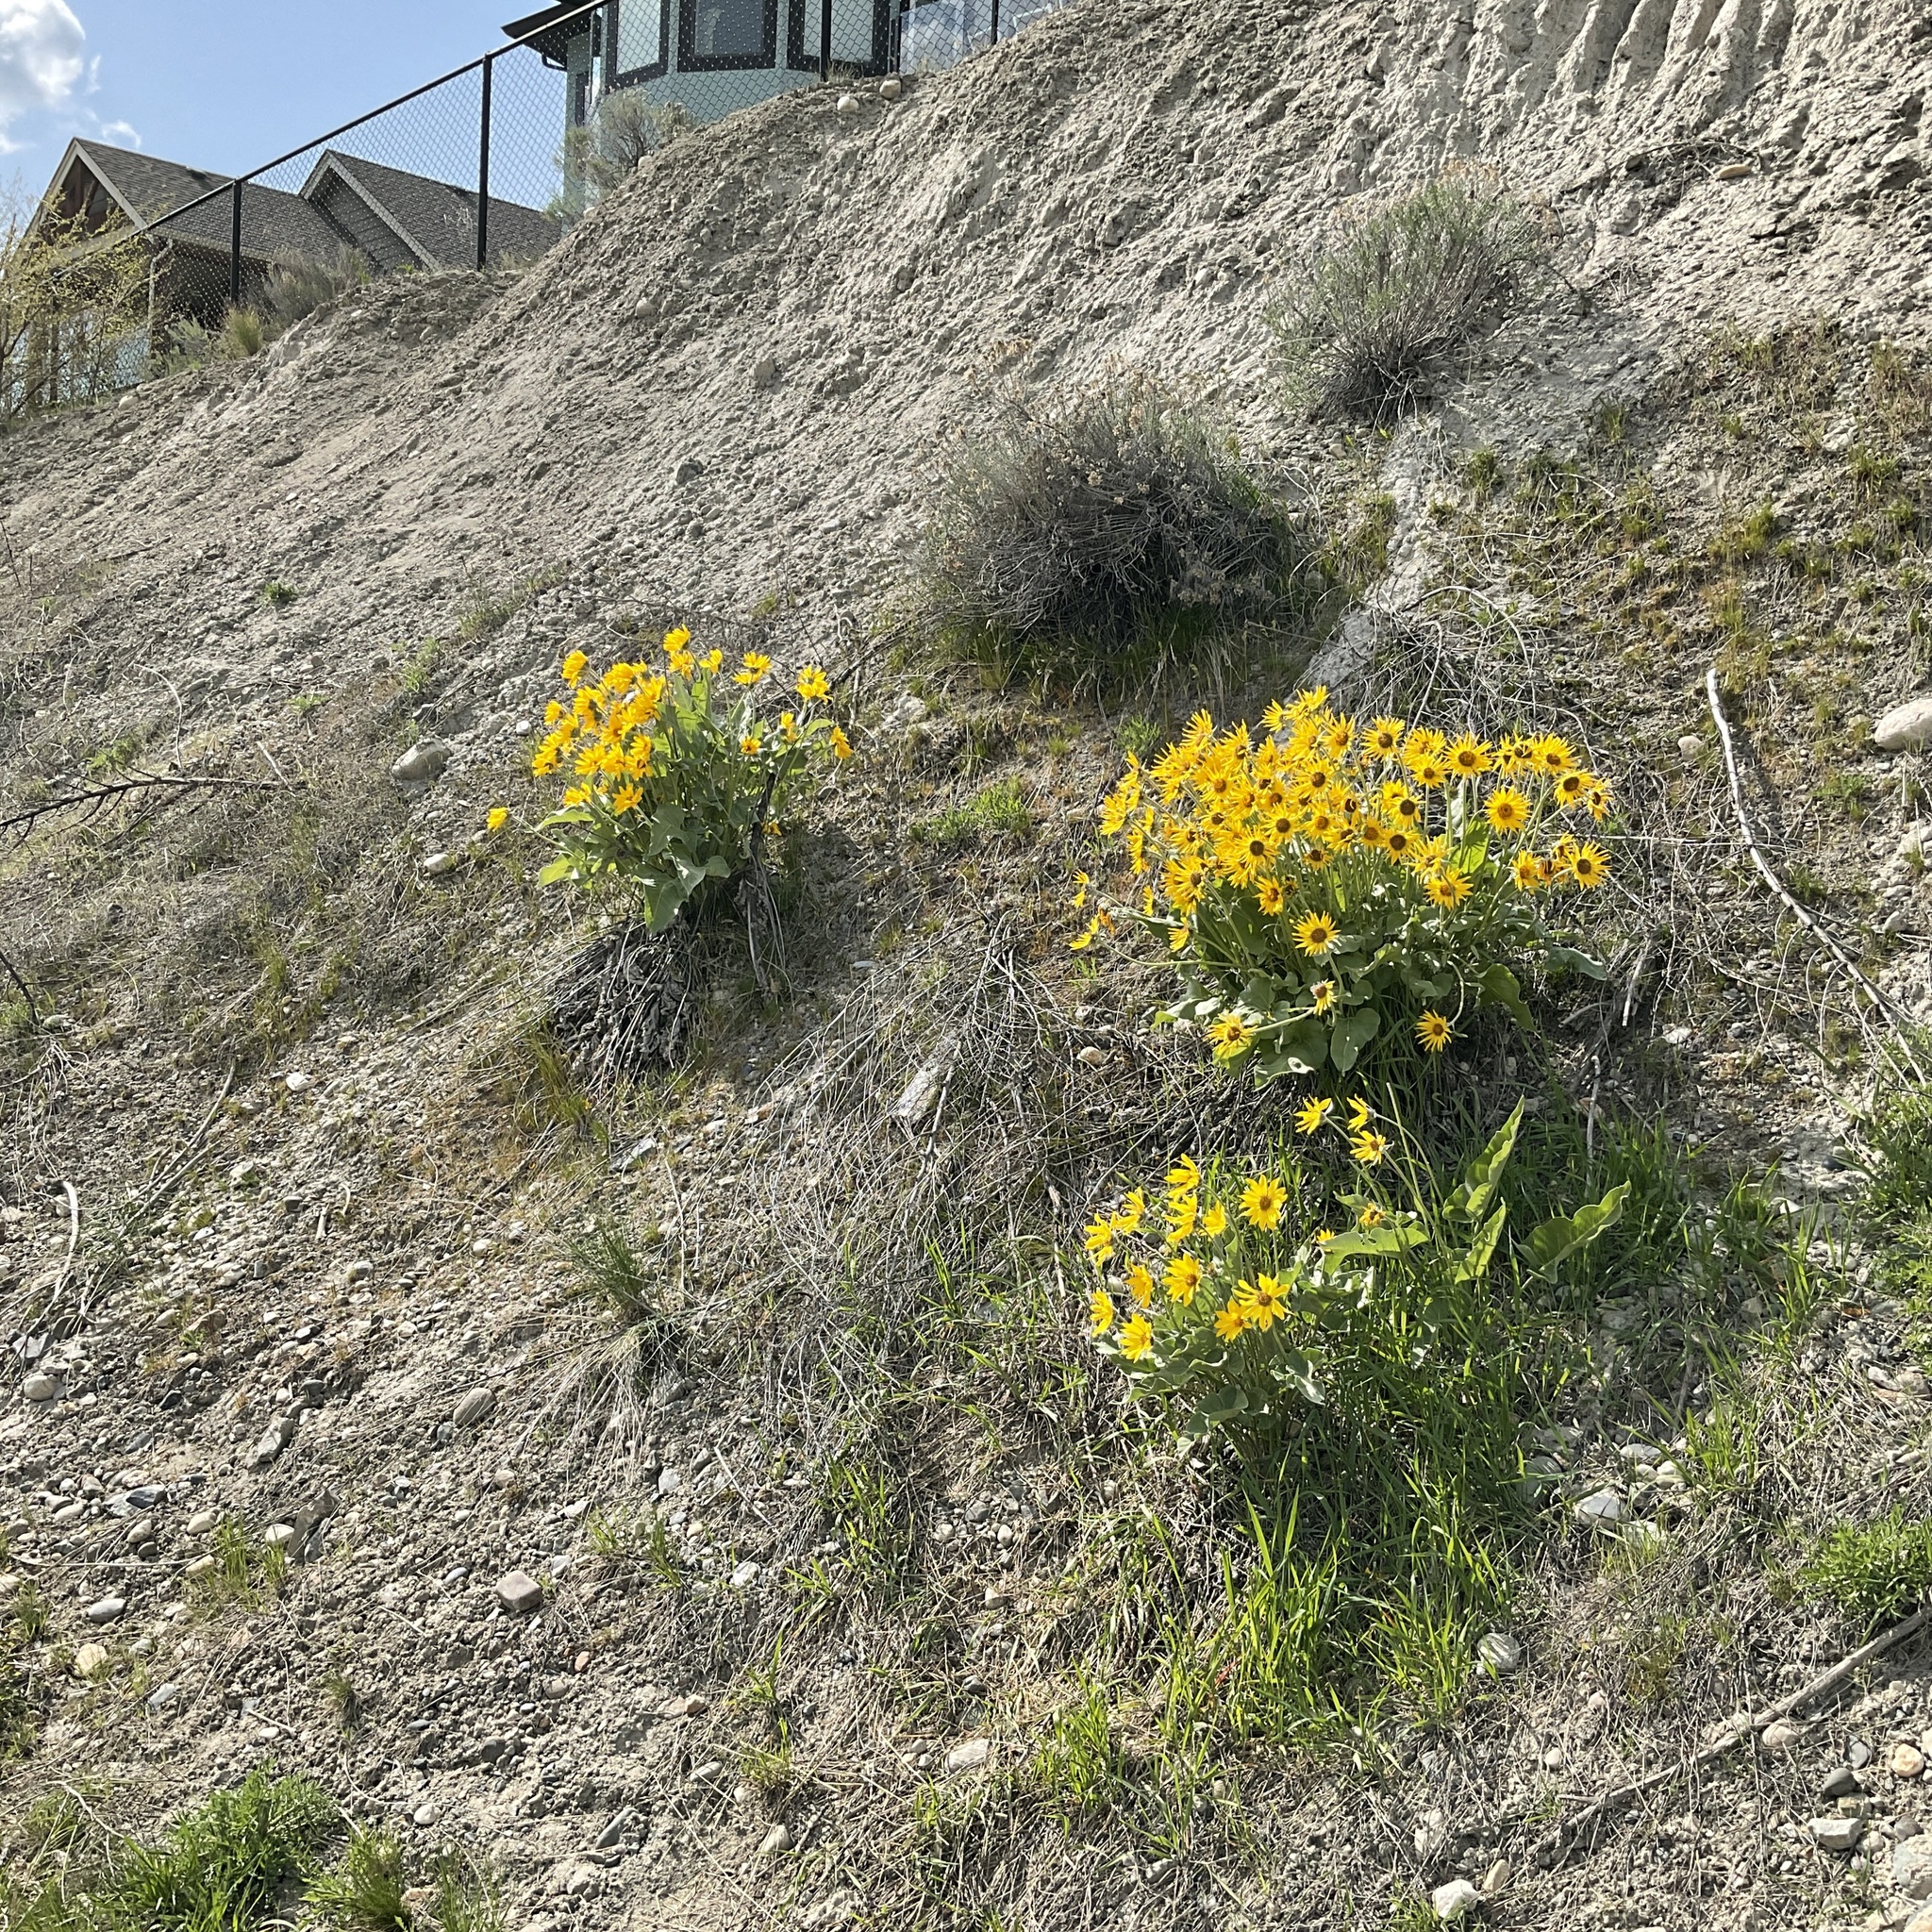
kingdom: Plantae
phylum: Tracheophyta
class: Magnoliopsida
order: Asterales
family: Asteraceae
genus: Wyethia
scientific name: Wyethia sagittata
